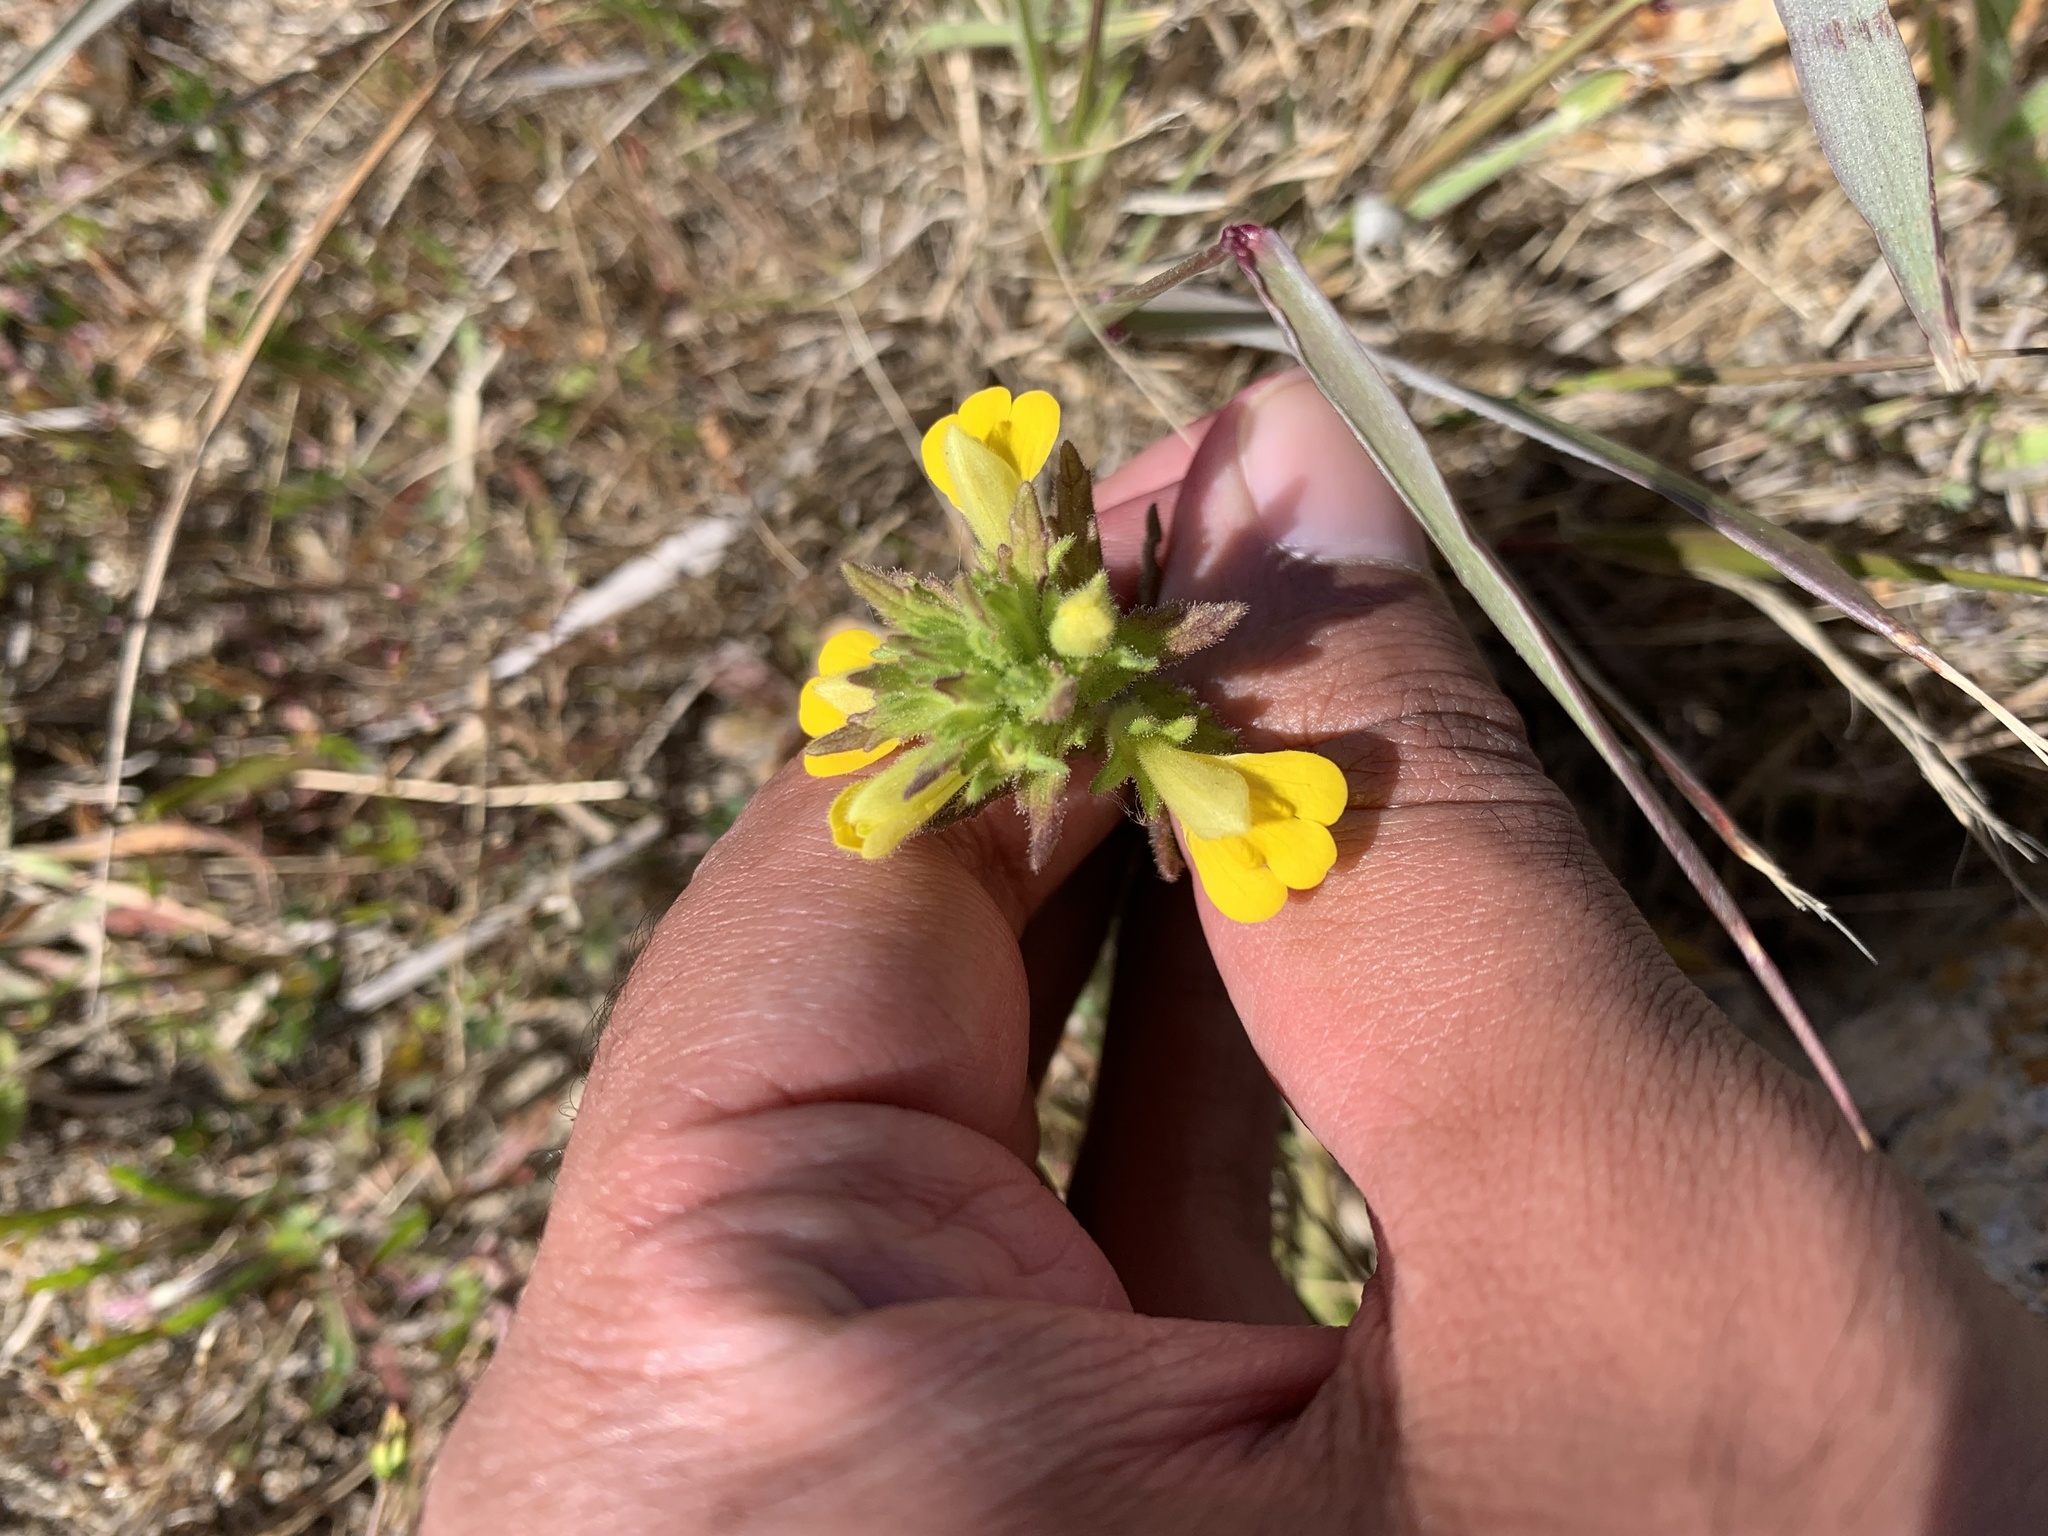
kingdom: Plantae
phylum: Tracheophyta
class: Magnoliopsida
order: Lamiales
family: Orobanchaceae
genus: Bellardia
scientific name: Bellardia viscosa
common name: Sticky parentucellia
